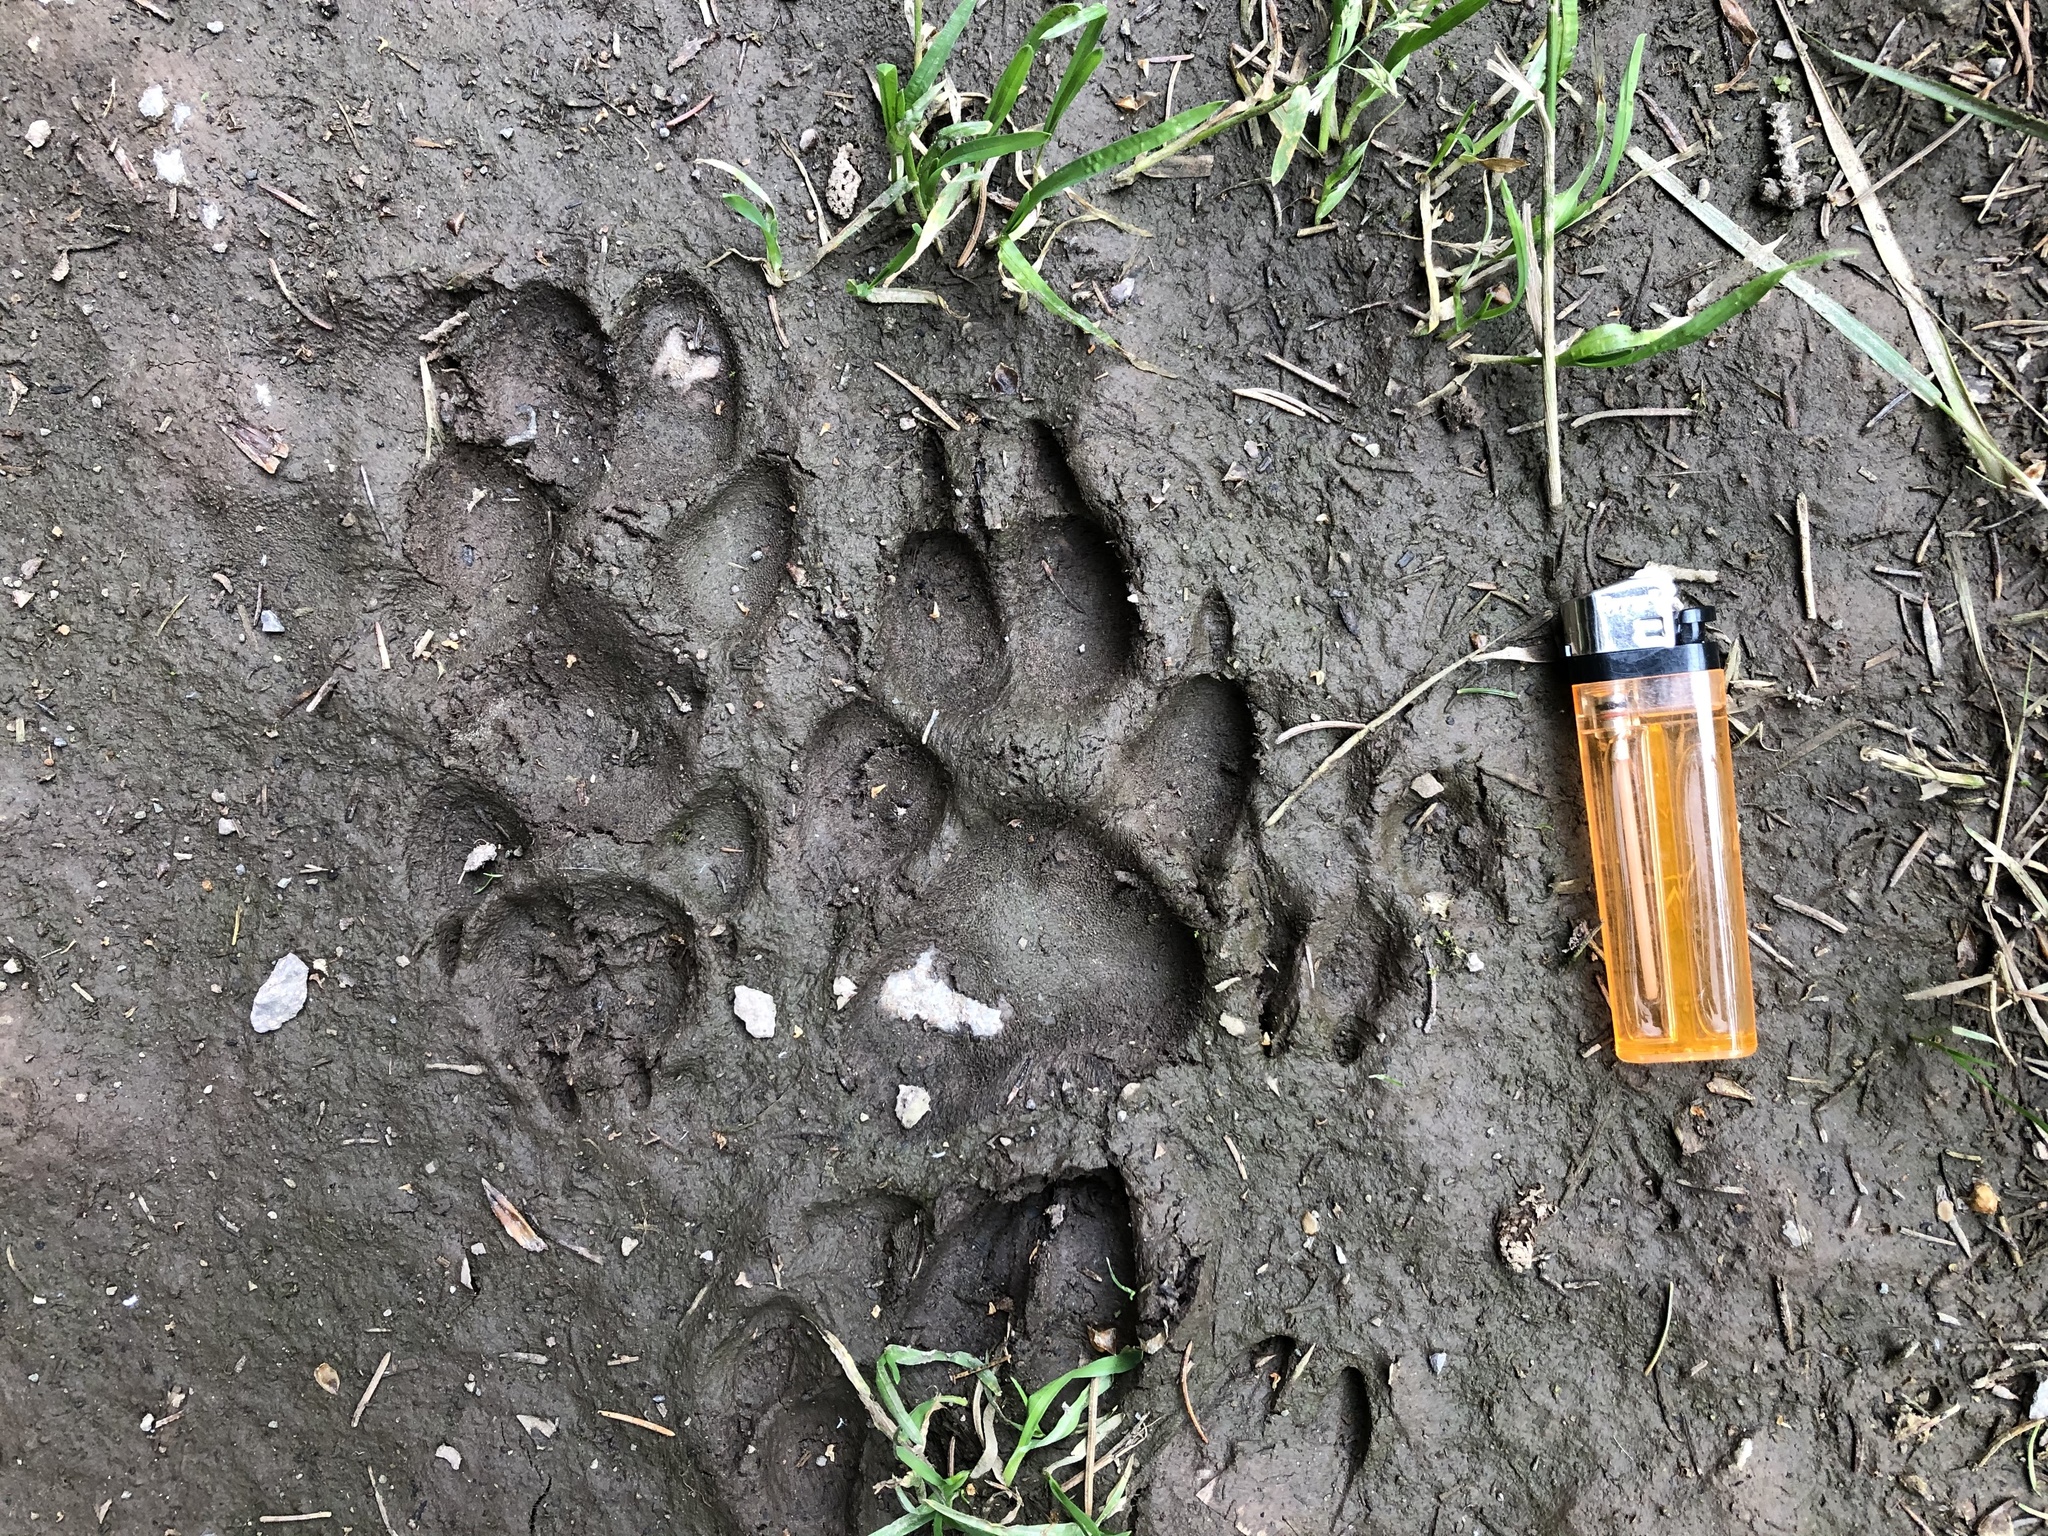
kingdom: Animalia
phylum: Chordata
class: Mammalia
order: Carnivora
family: Canidae
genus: Canis
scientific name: Canis lupus
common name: Gray wolf
